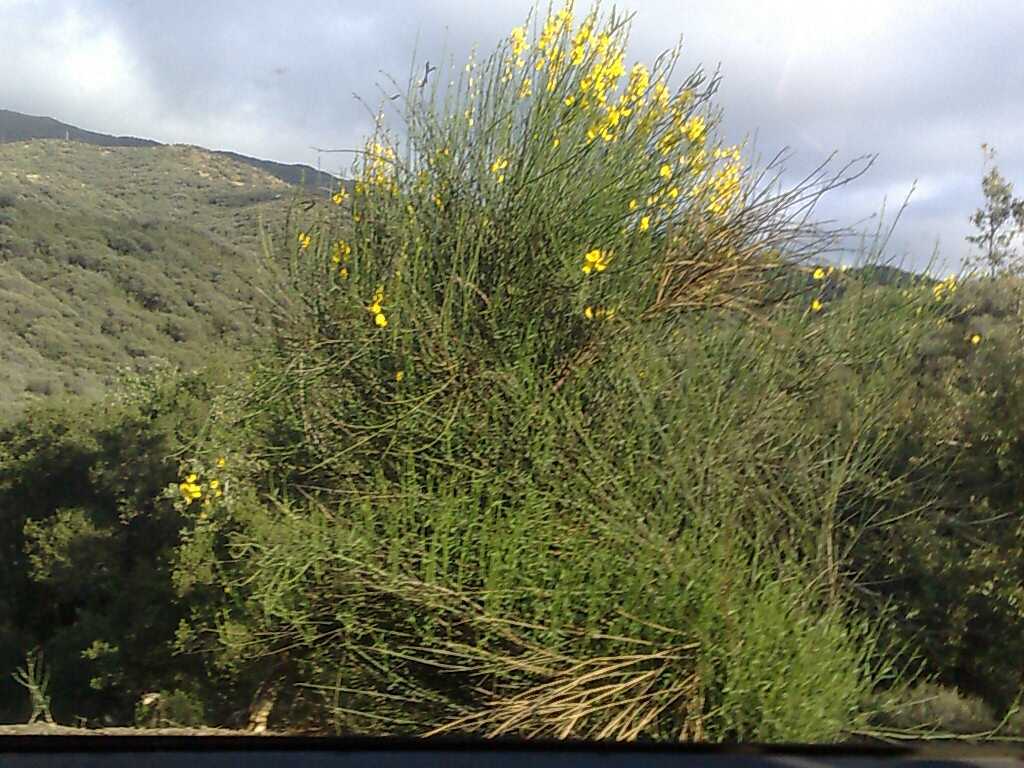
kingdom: Plantae
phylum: Tracheophyta
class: Magnoliopsida
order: Fabales
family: Fabaceae
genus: Spartium
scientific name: Spartium junceum
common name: Spanish broom
